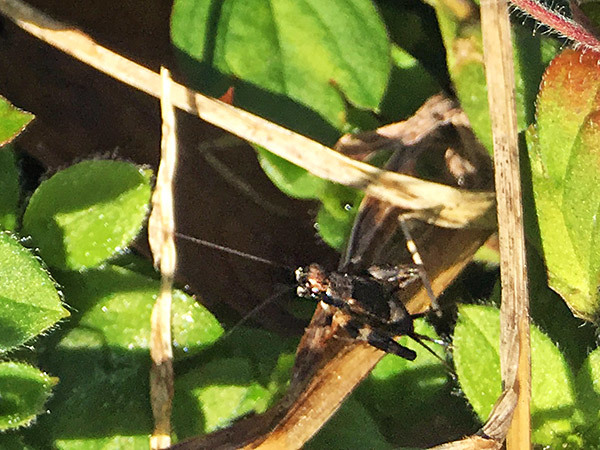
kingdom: Animalia
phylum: Arthropoda
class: Insecta
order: Orthoptera
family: Trigonidiidae
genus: Dianemobius
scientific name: Dianemobius fascipes
